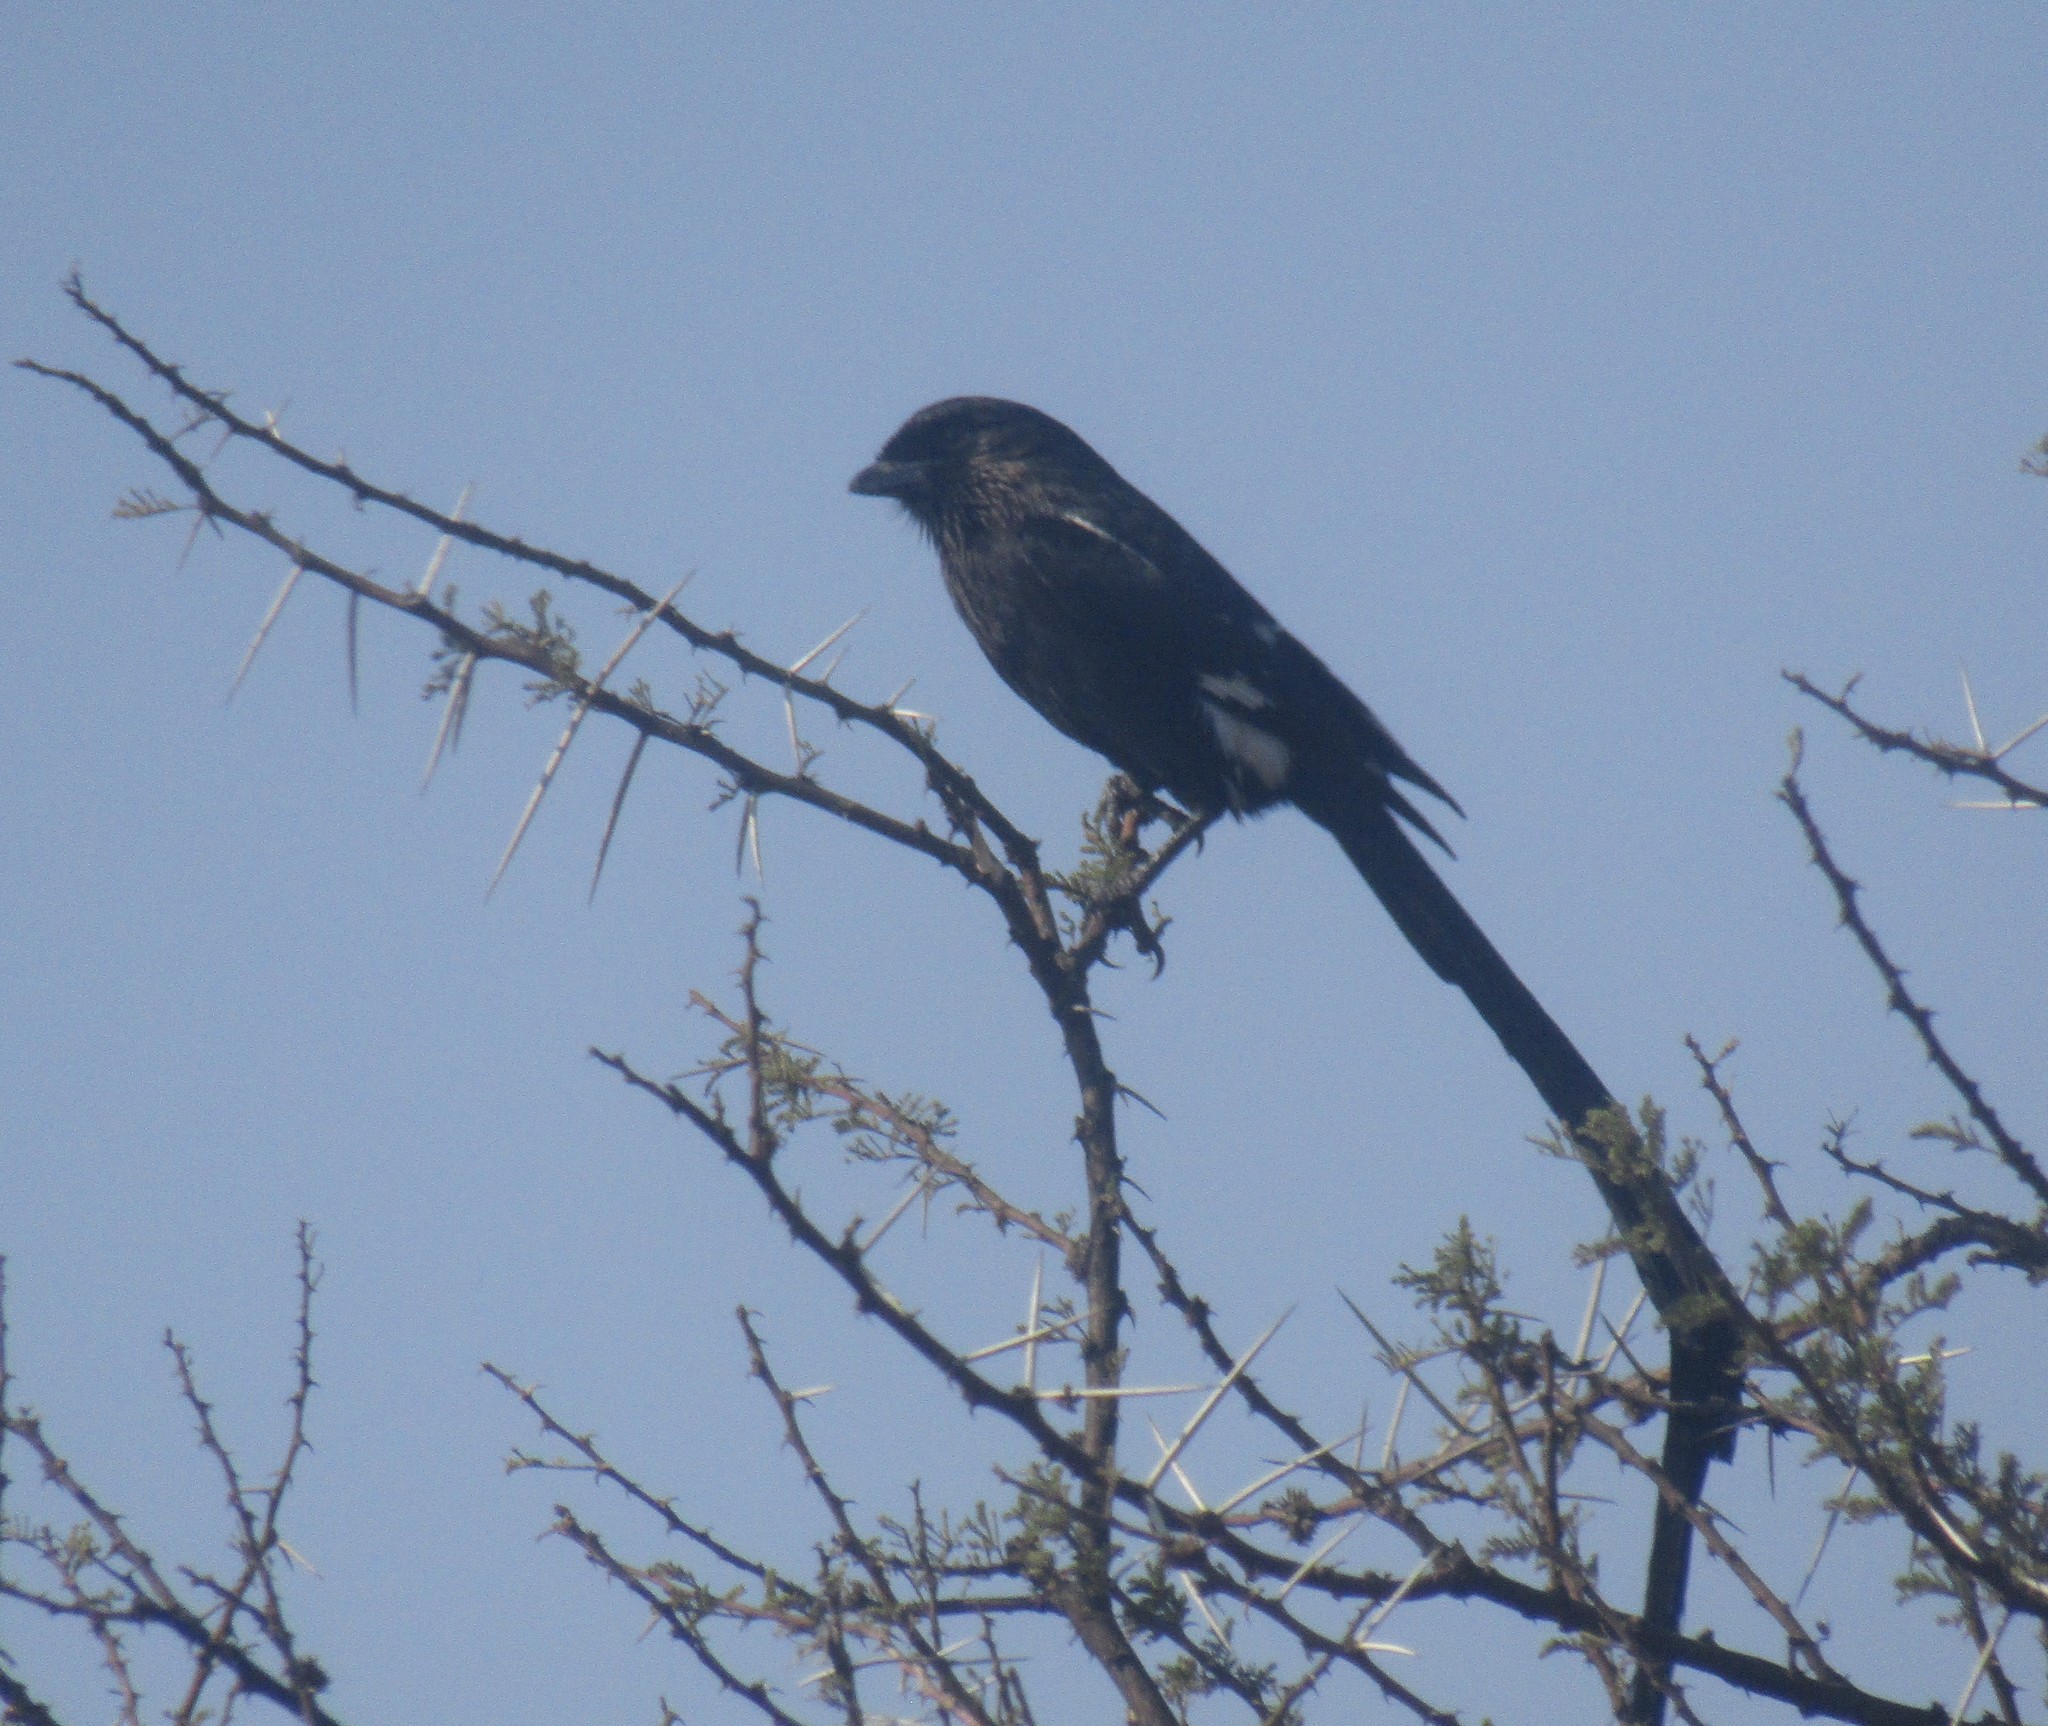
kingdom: Animalia
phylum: Chordata
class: Aves
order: Passeriformes
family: Laniidae
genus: Urolestes
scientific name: Urolestes melanoleucus
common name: Magpie shrike
